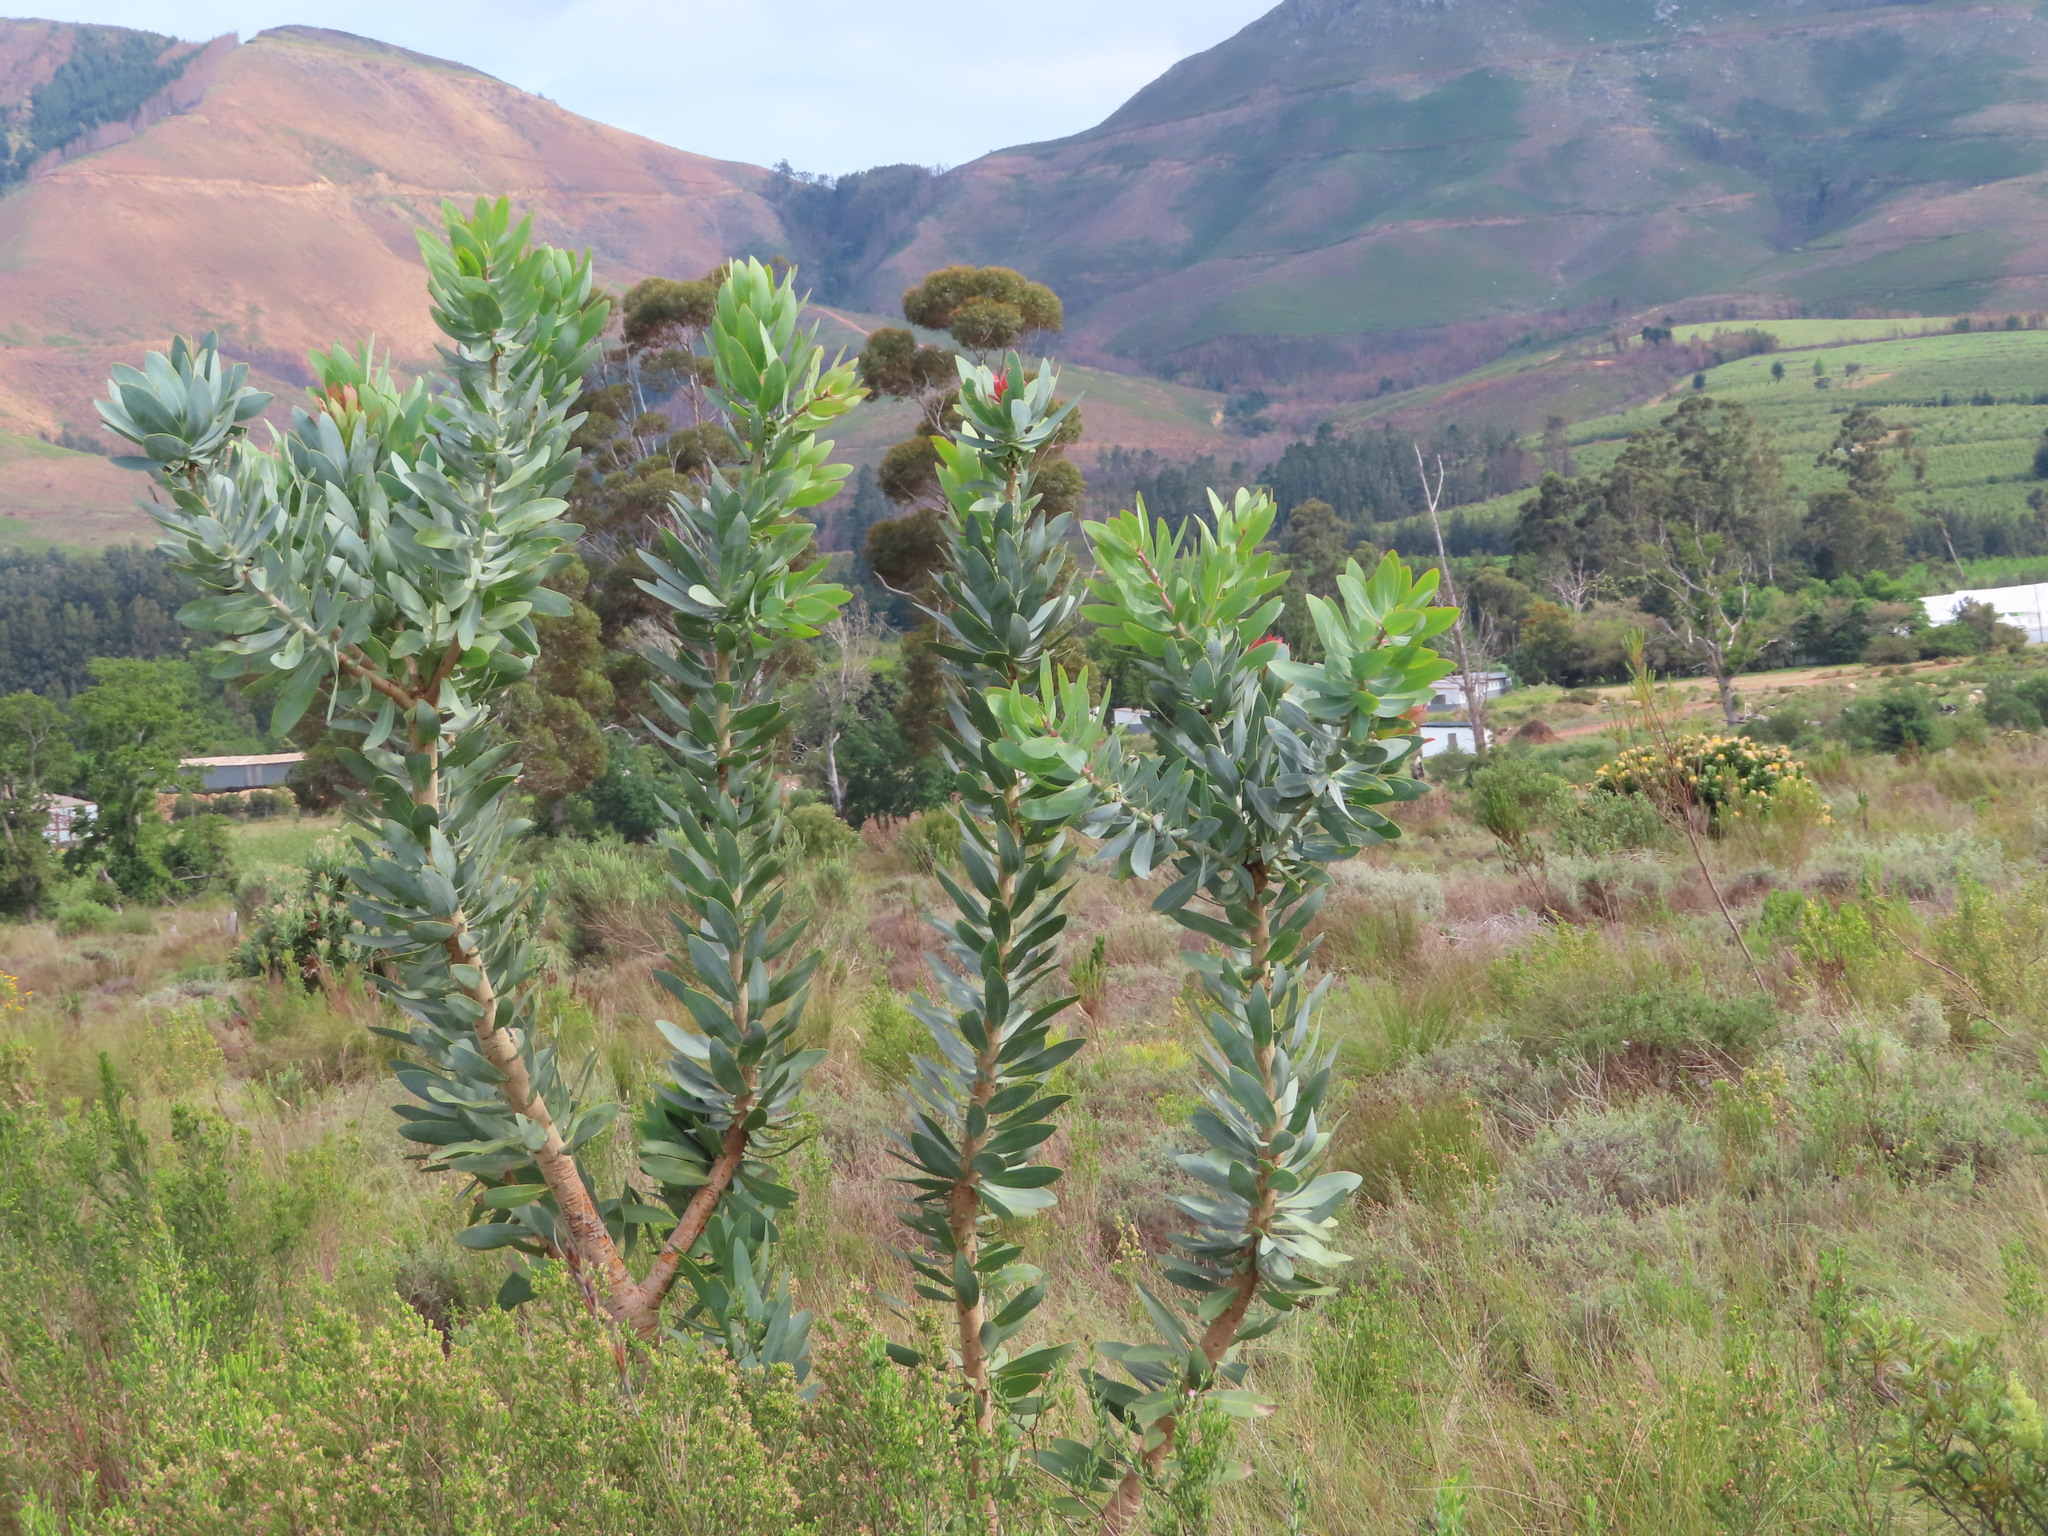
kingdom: Plantae
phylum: Tracheophyta
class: Magnoliopsida
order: Proteales
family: Proteaceae
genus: Protea
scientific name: Protea nitida
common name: Tree protea
